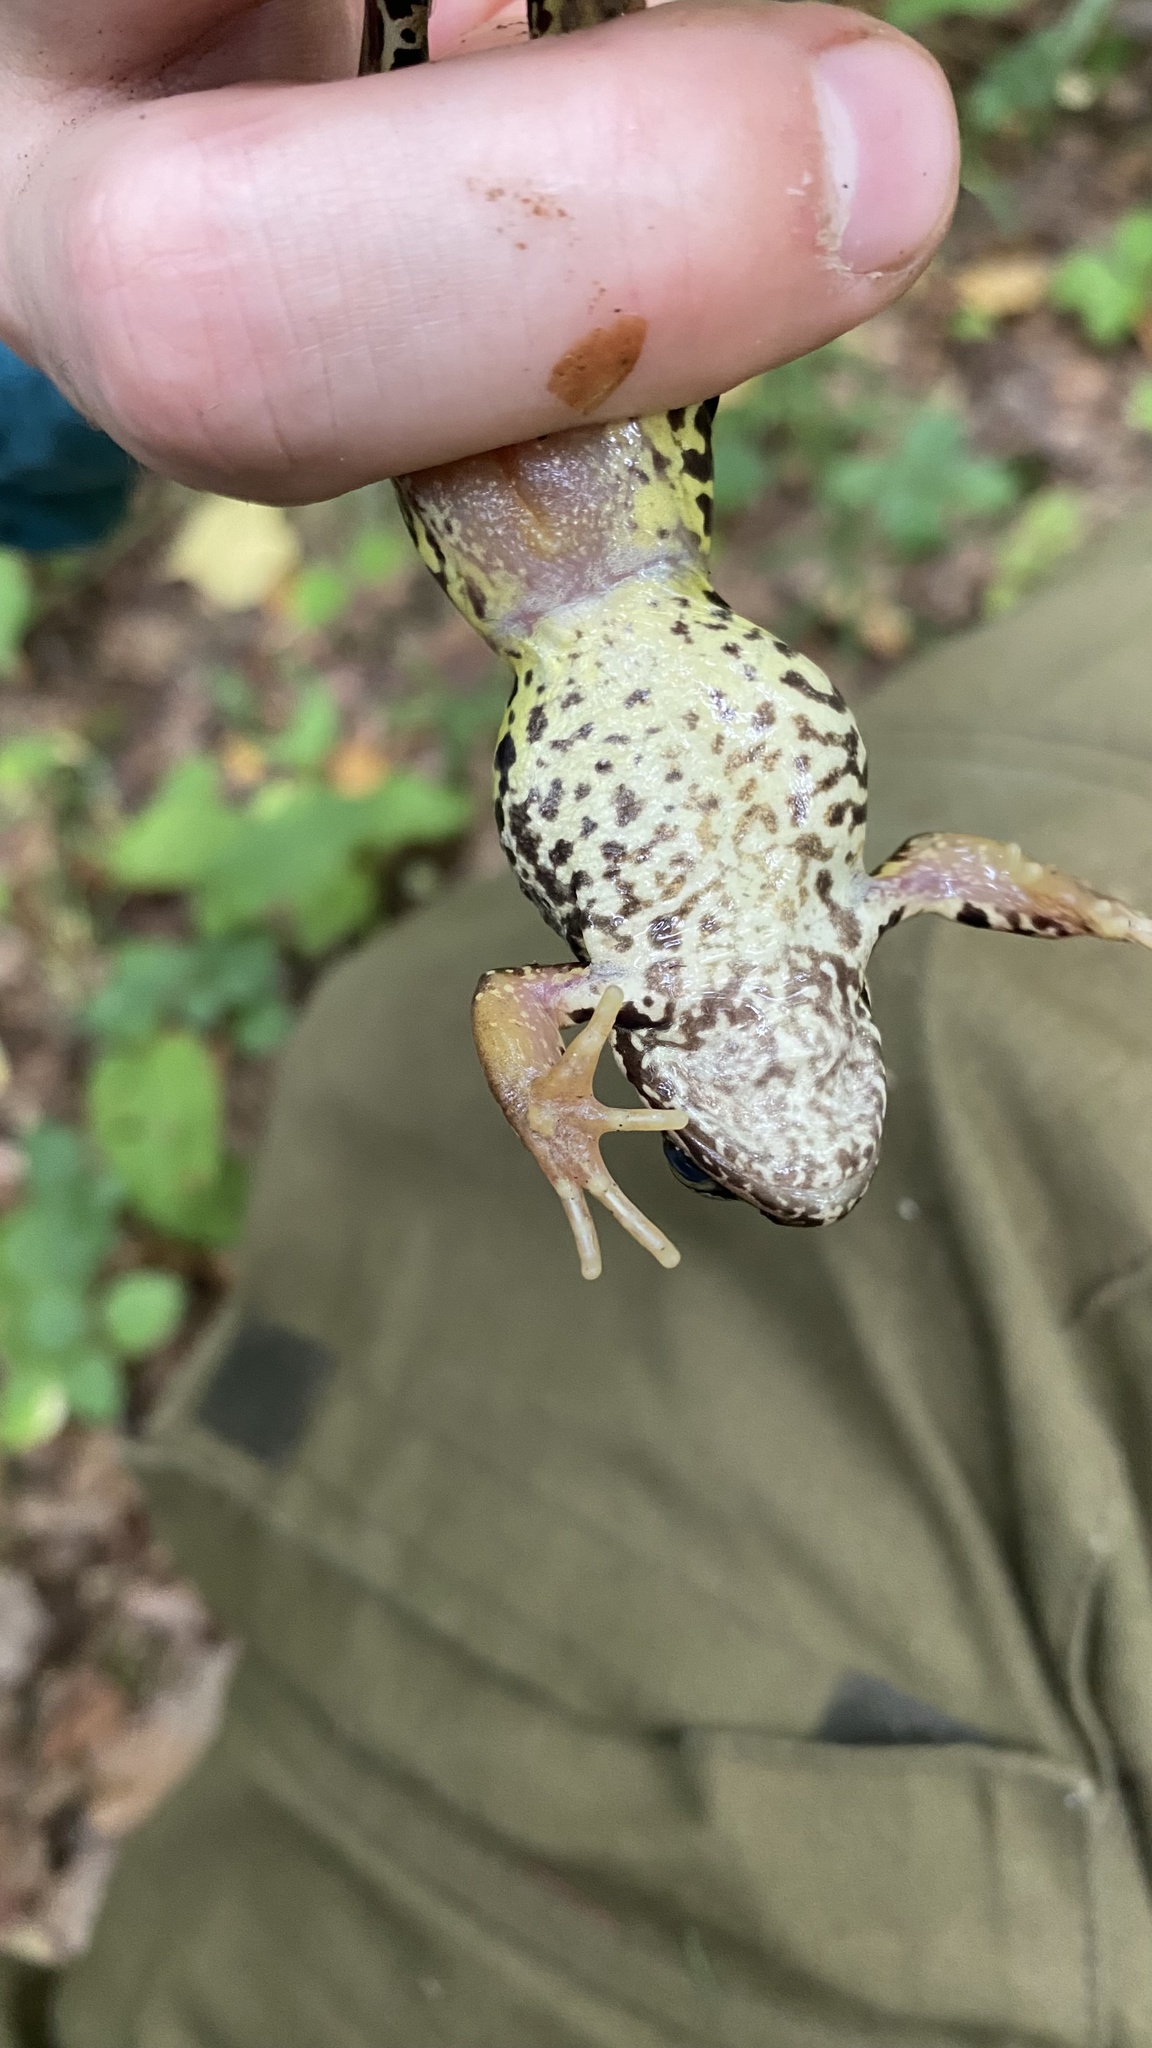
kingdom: Animalia
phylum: Chordata
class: Amphibia
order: Anura
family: Ranidae
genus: Rana
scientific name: Rana temporaria
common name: Common frog
